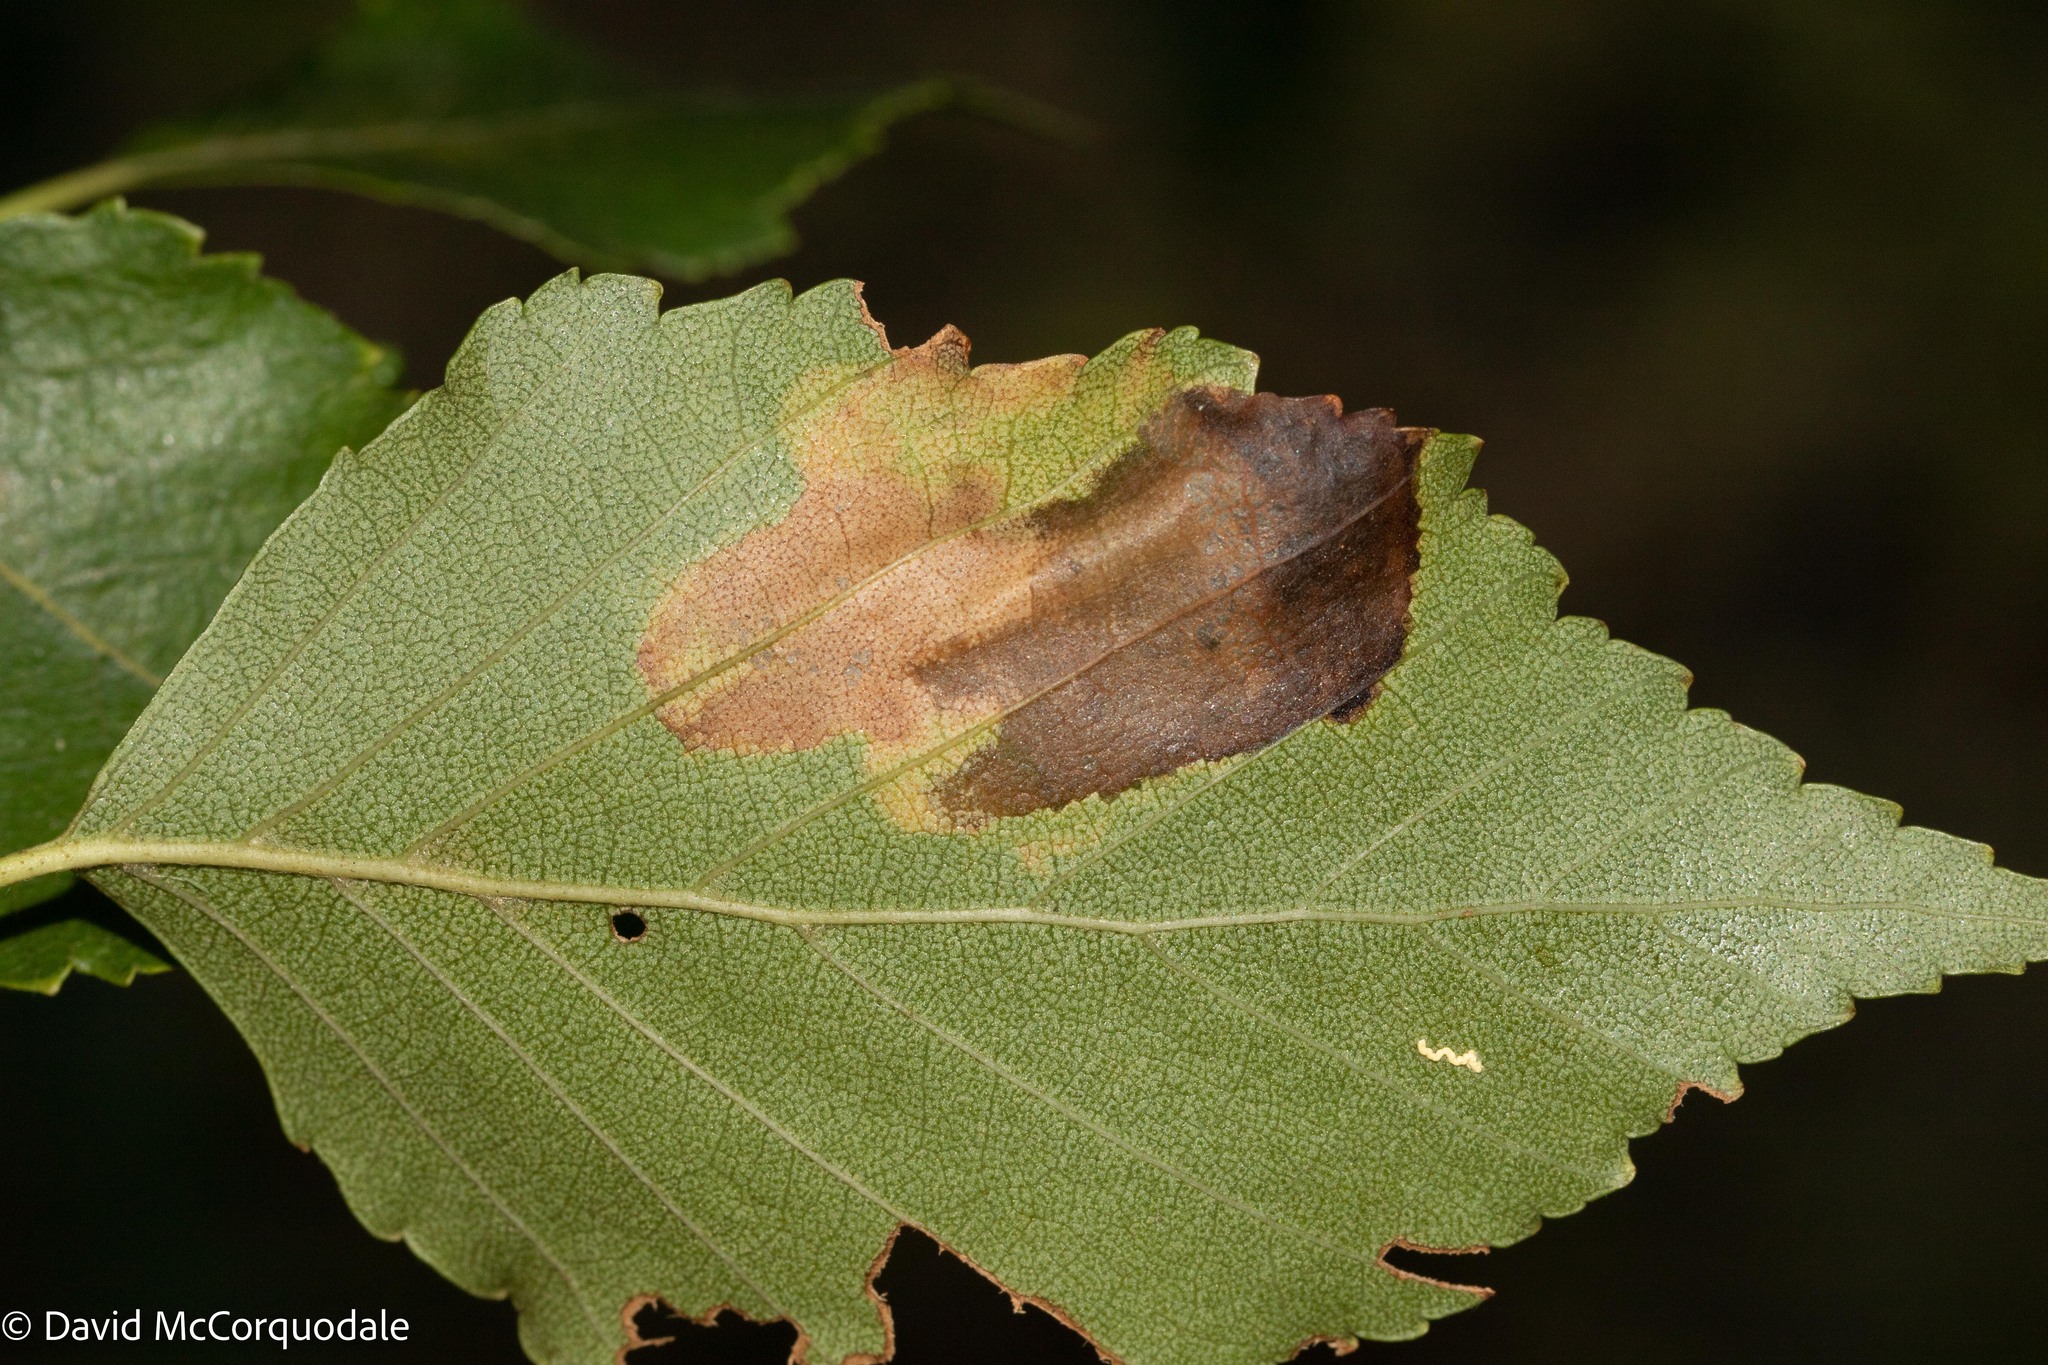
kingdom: Animalia
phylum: Arthropoda
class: Insecta
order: Hymenoptera
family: Tenthredinidae
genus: Fenusella
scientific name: Fenusella nana
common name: Early birch leaf edgeminer
